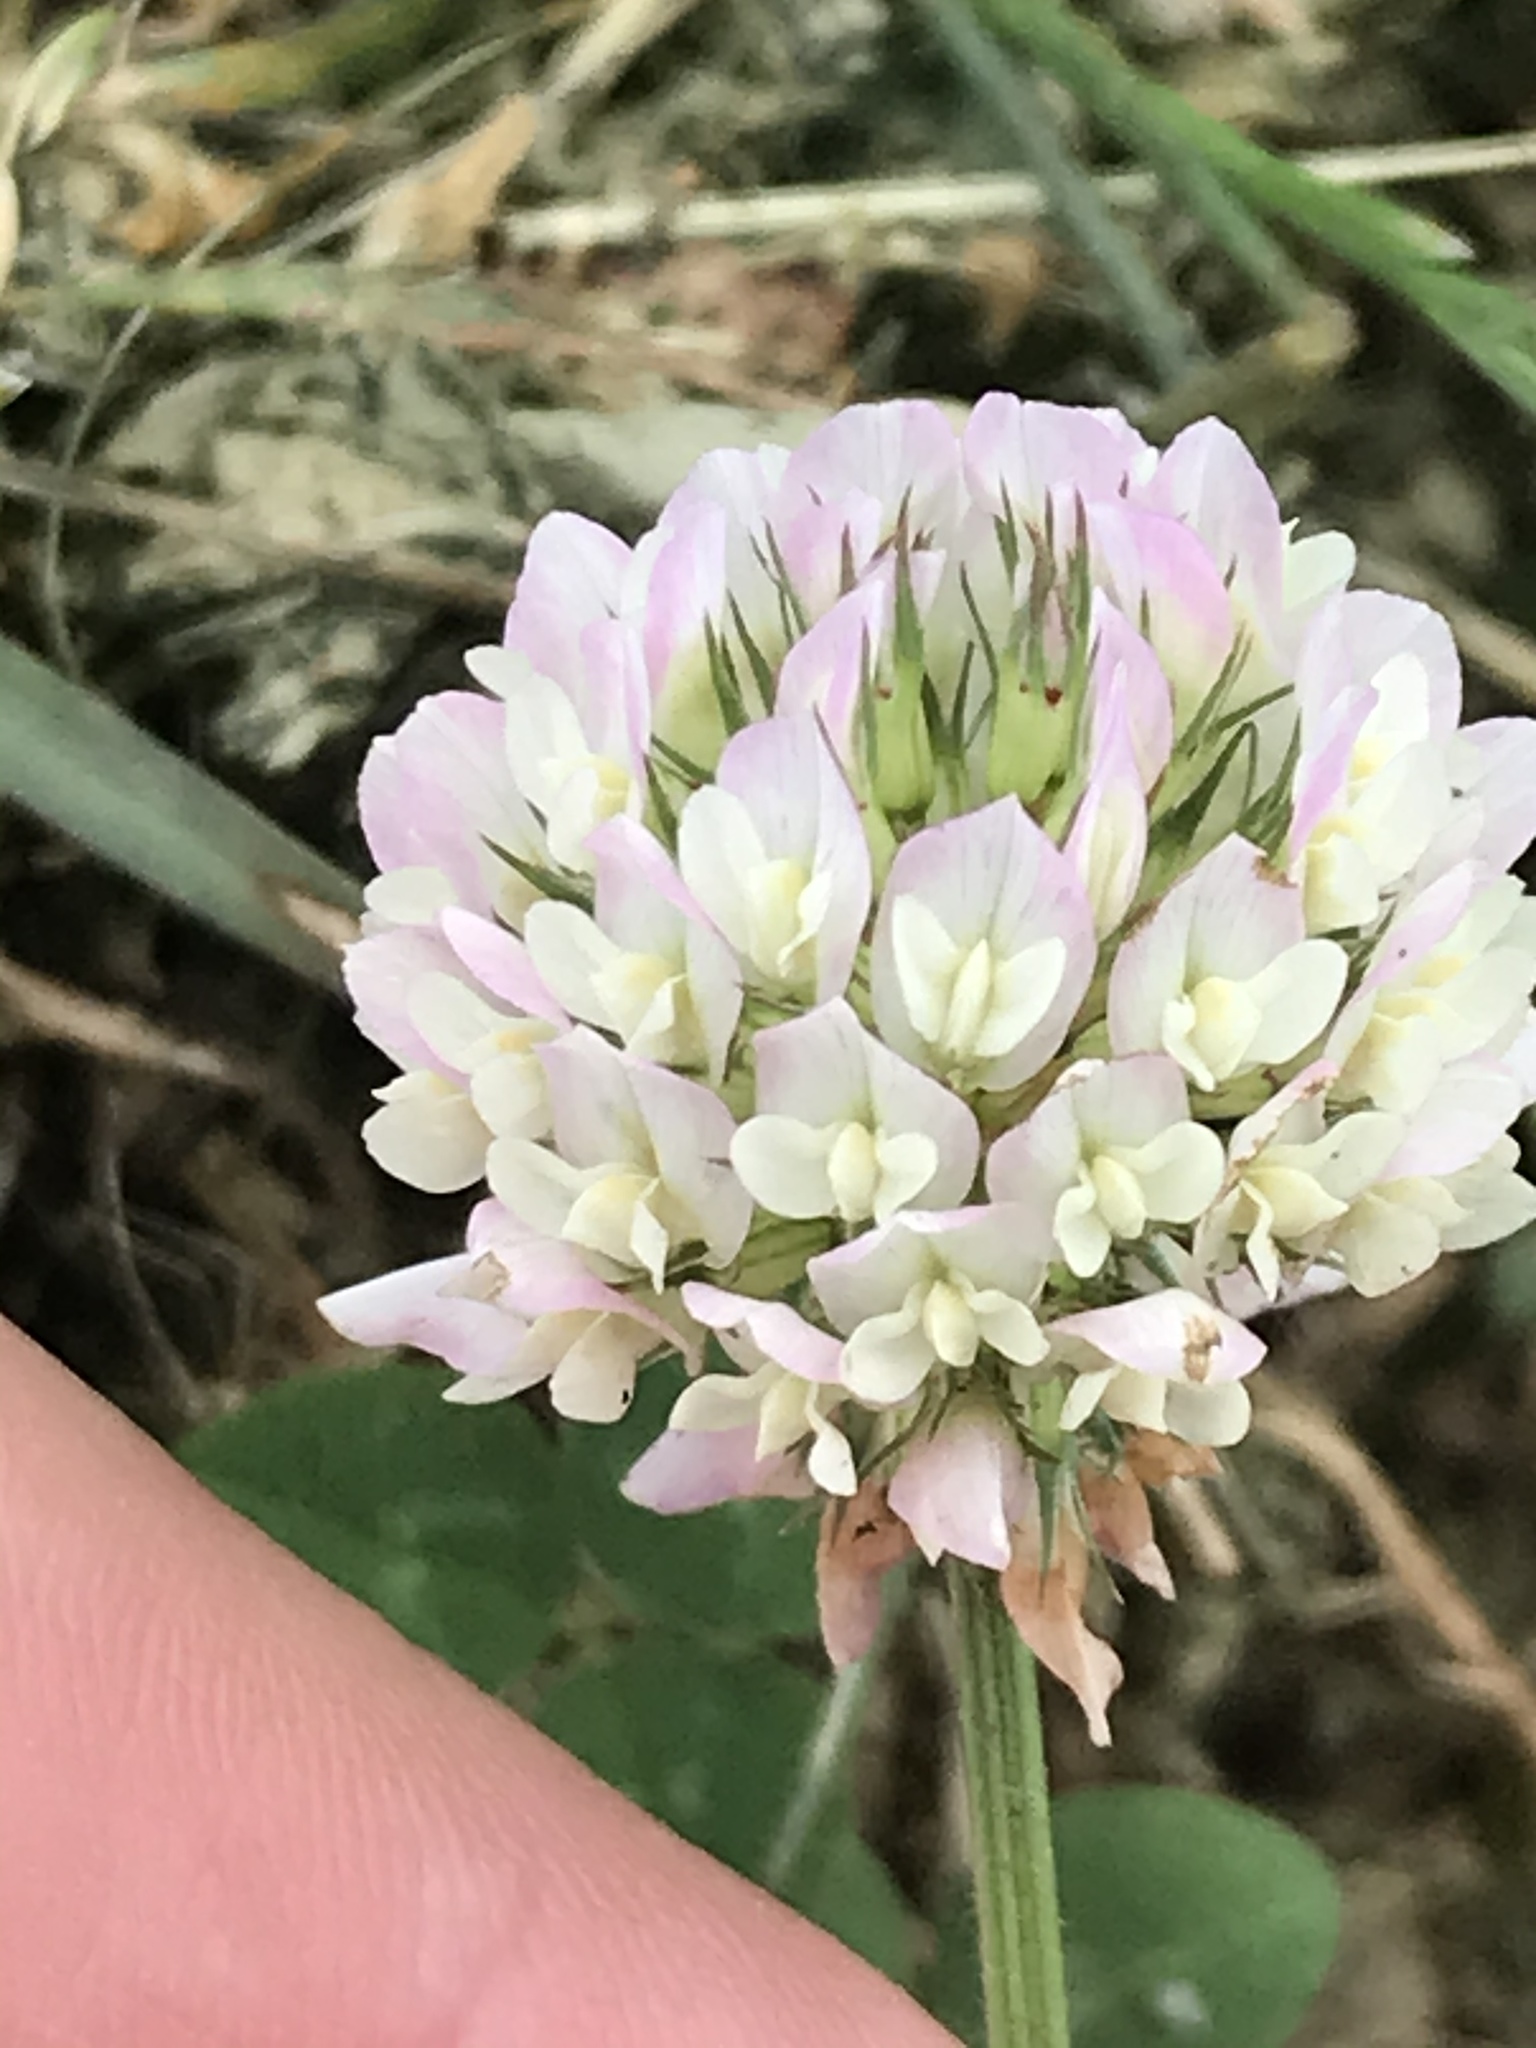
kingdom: Plantae
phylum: Tracheophyta
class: Magnoliopsida
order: Fabales
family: Fabaceae
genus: Trifolium
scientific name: Trifolium repens
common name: White clover
